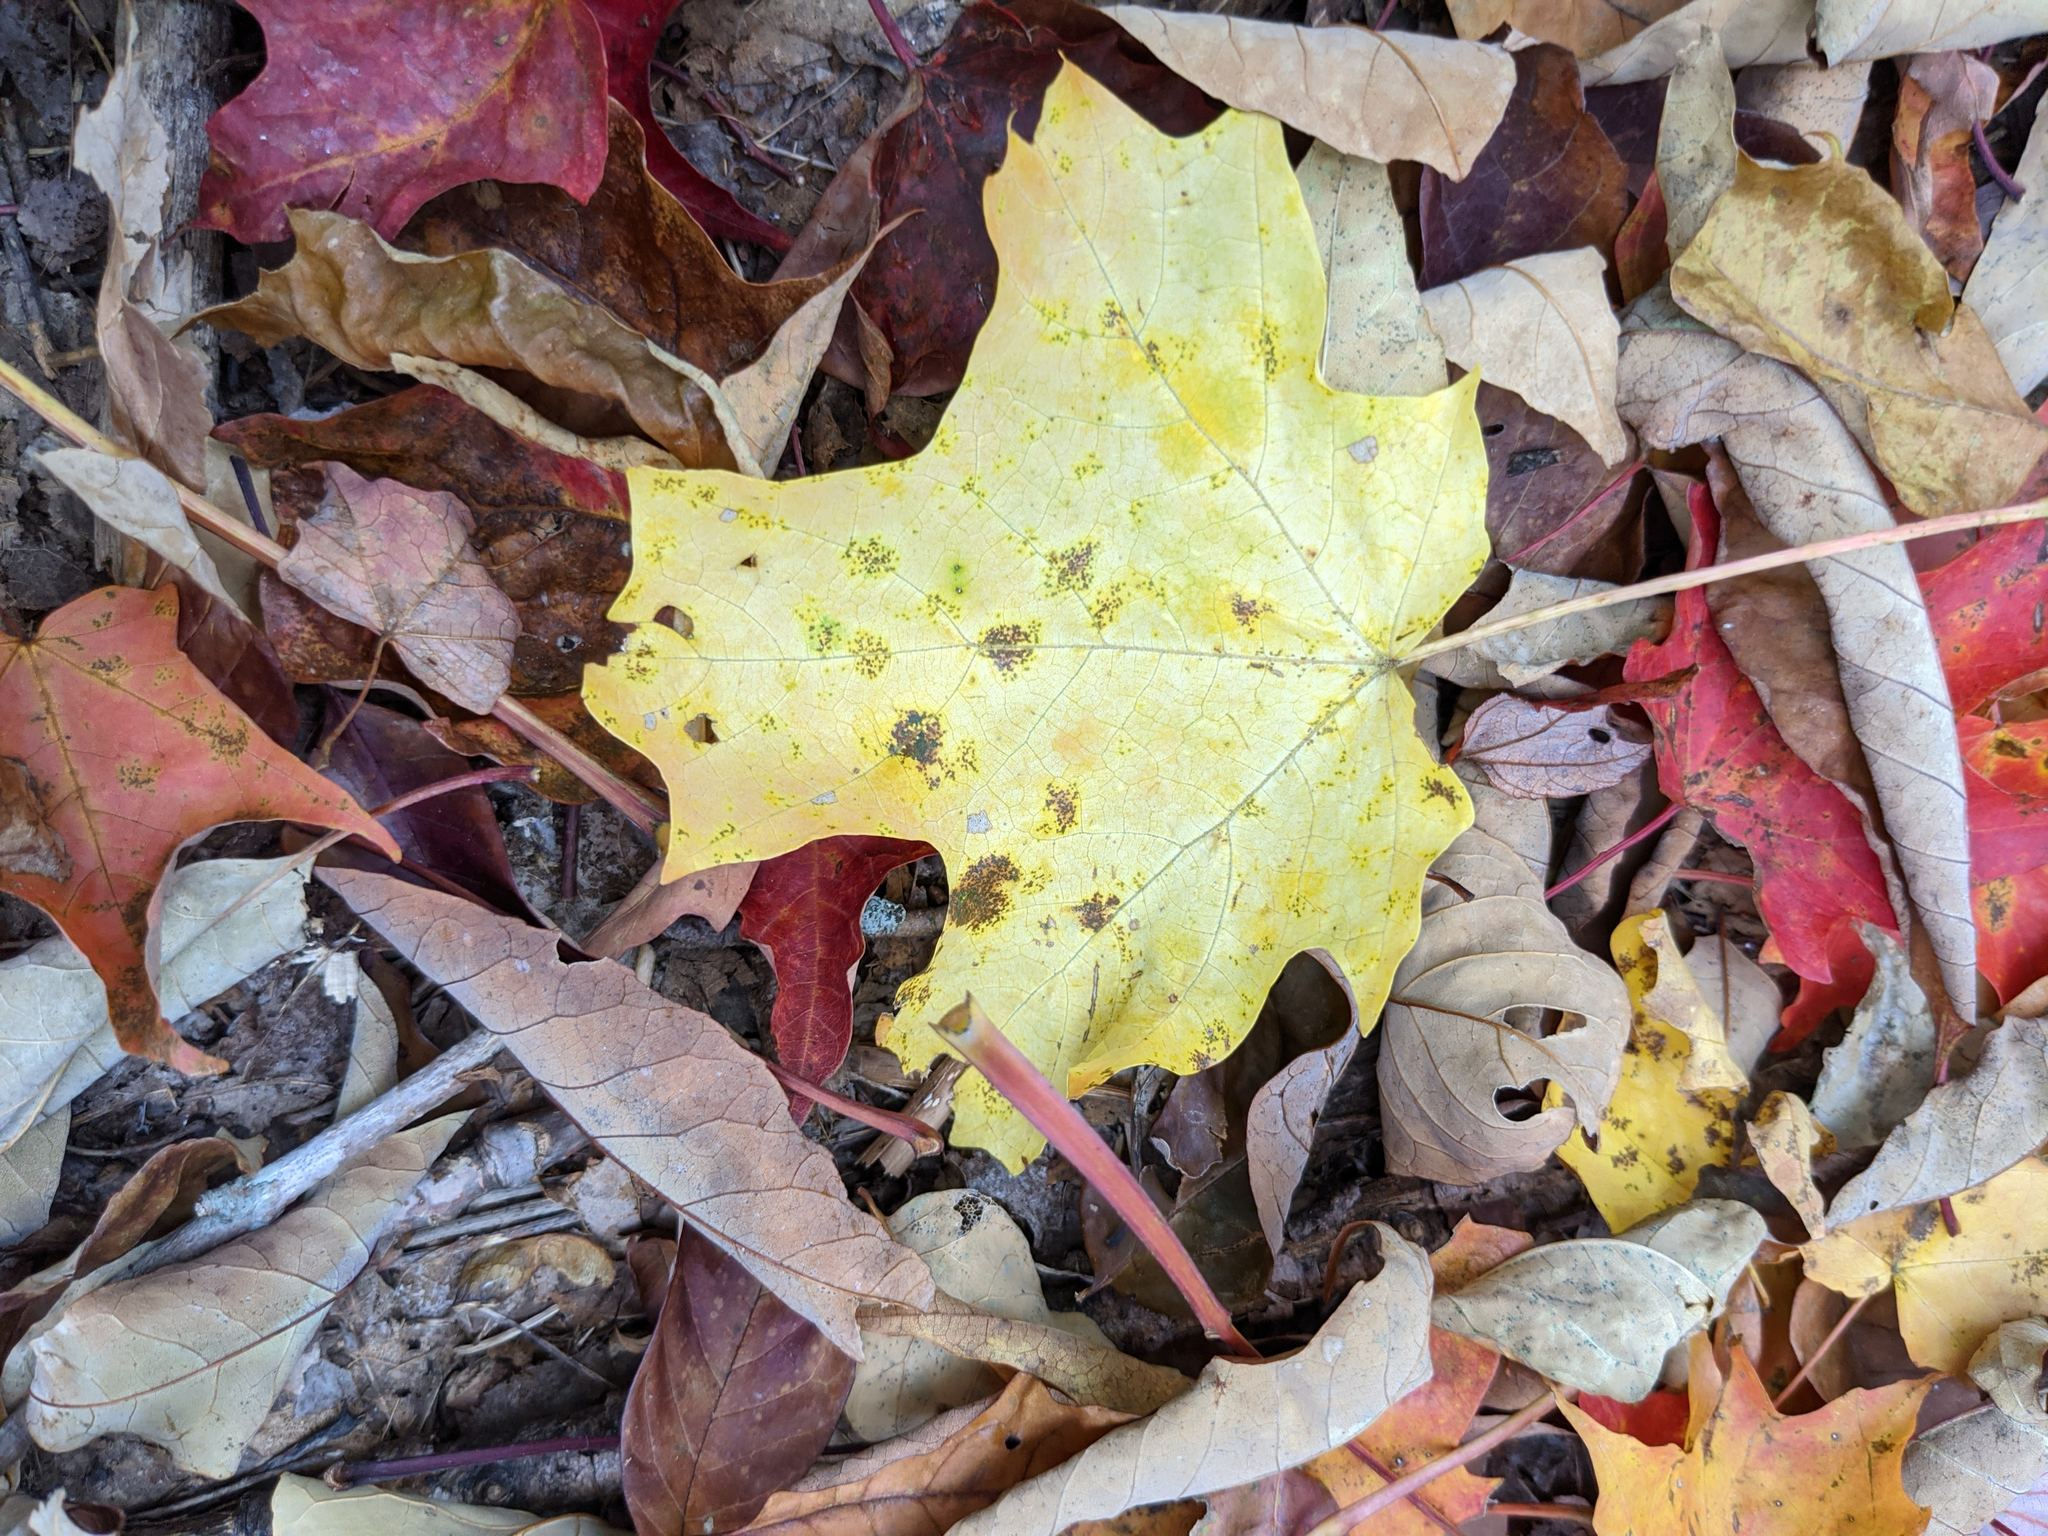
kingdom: Plantae
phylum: Tracheophyta
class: Magnoliopsida
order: Sapindales
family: Sapindaceae
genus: Acer
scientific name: Acer saccharum
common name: Sugar maple
